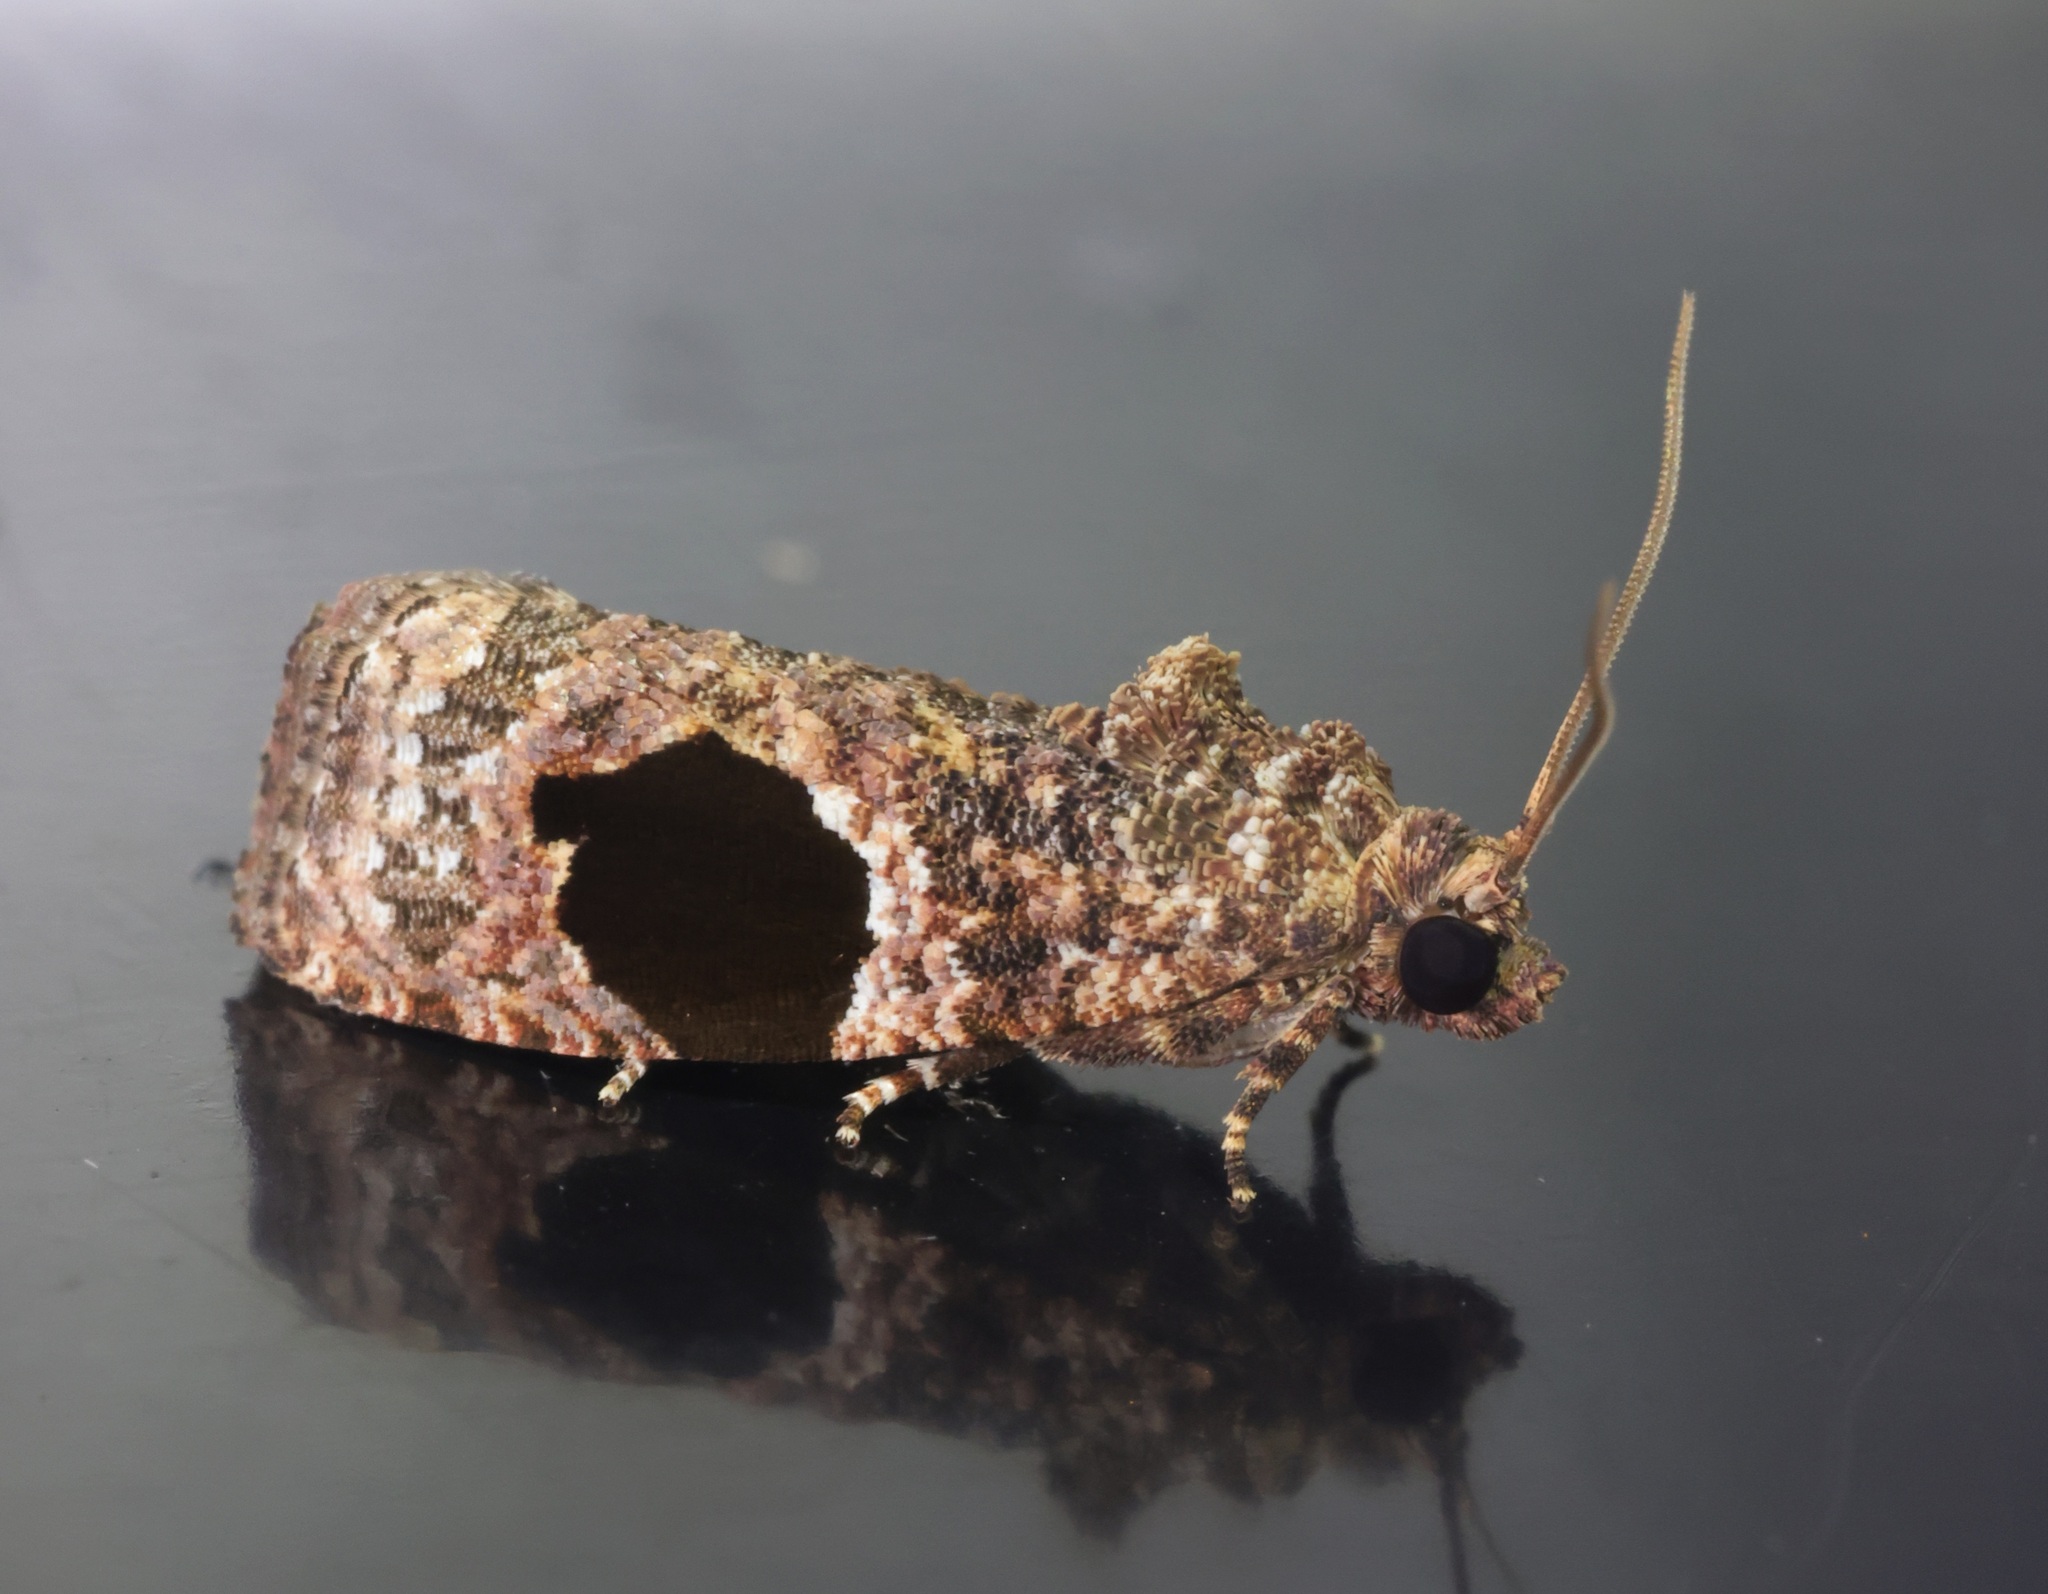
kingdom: Animalia
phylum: Arthropoda
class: Insecta
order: Lepidoptera
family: Tortricidae
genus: Ophiorrhabda
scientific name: Ophiorrhabda mormopa
